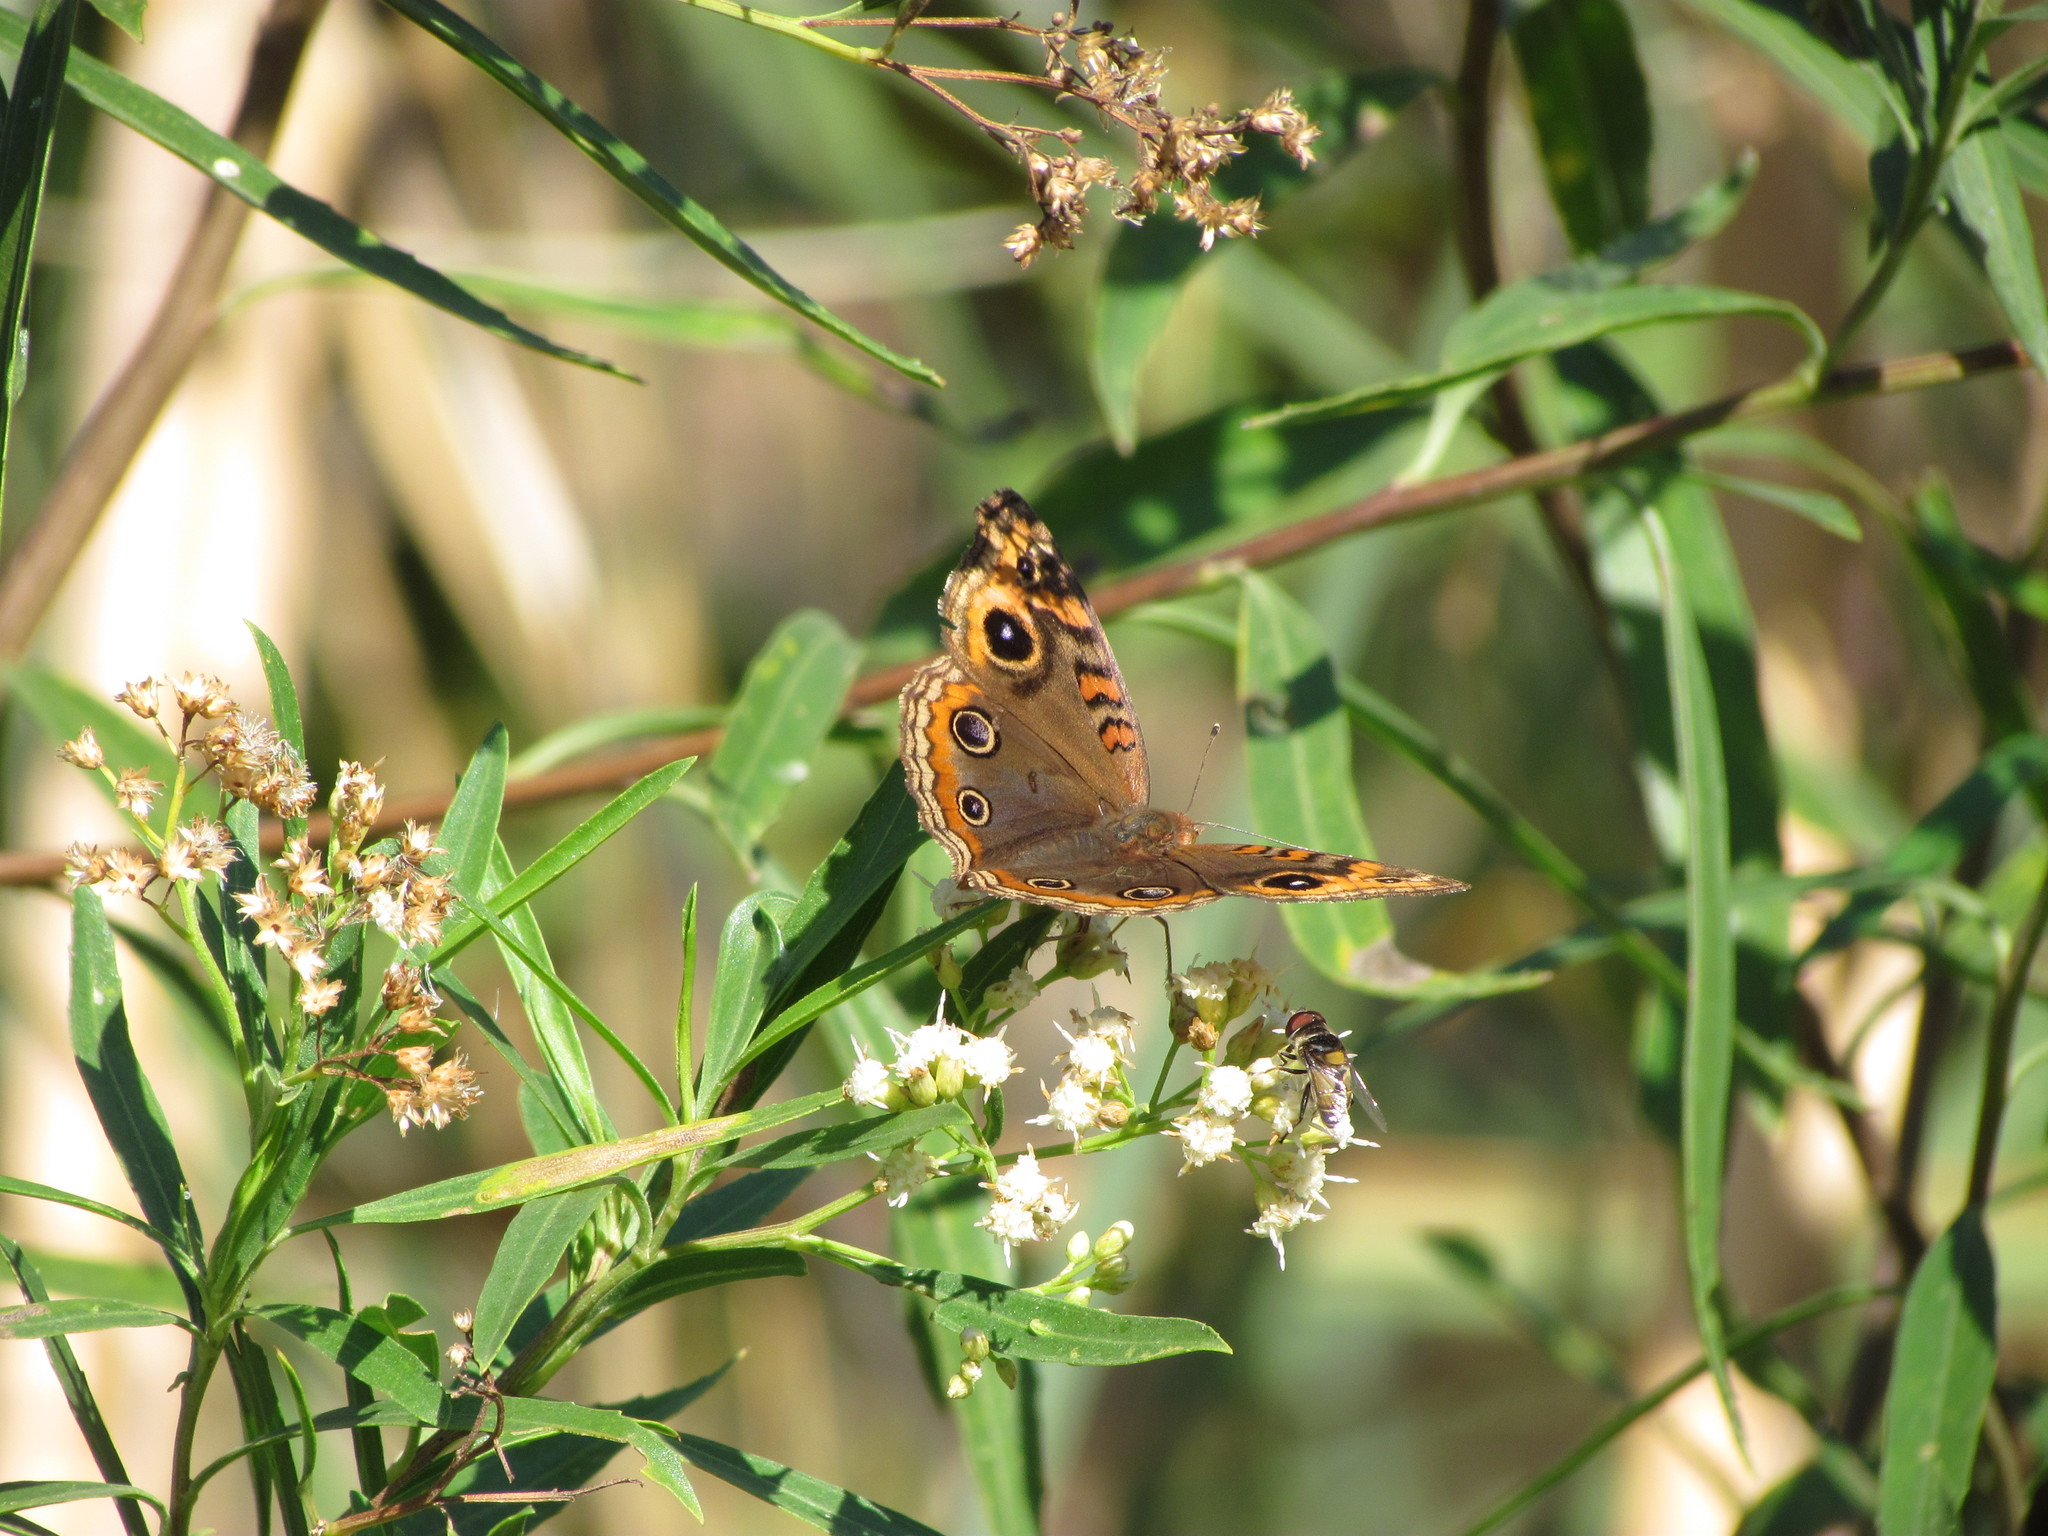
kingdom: Animalia
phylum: Arthropoda
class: Insecta
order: Lepidoptera
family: Nymphalidae
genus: Junonia
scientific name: Junonia lavinia
